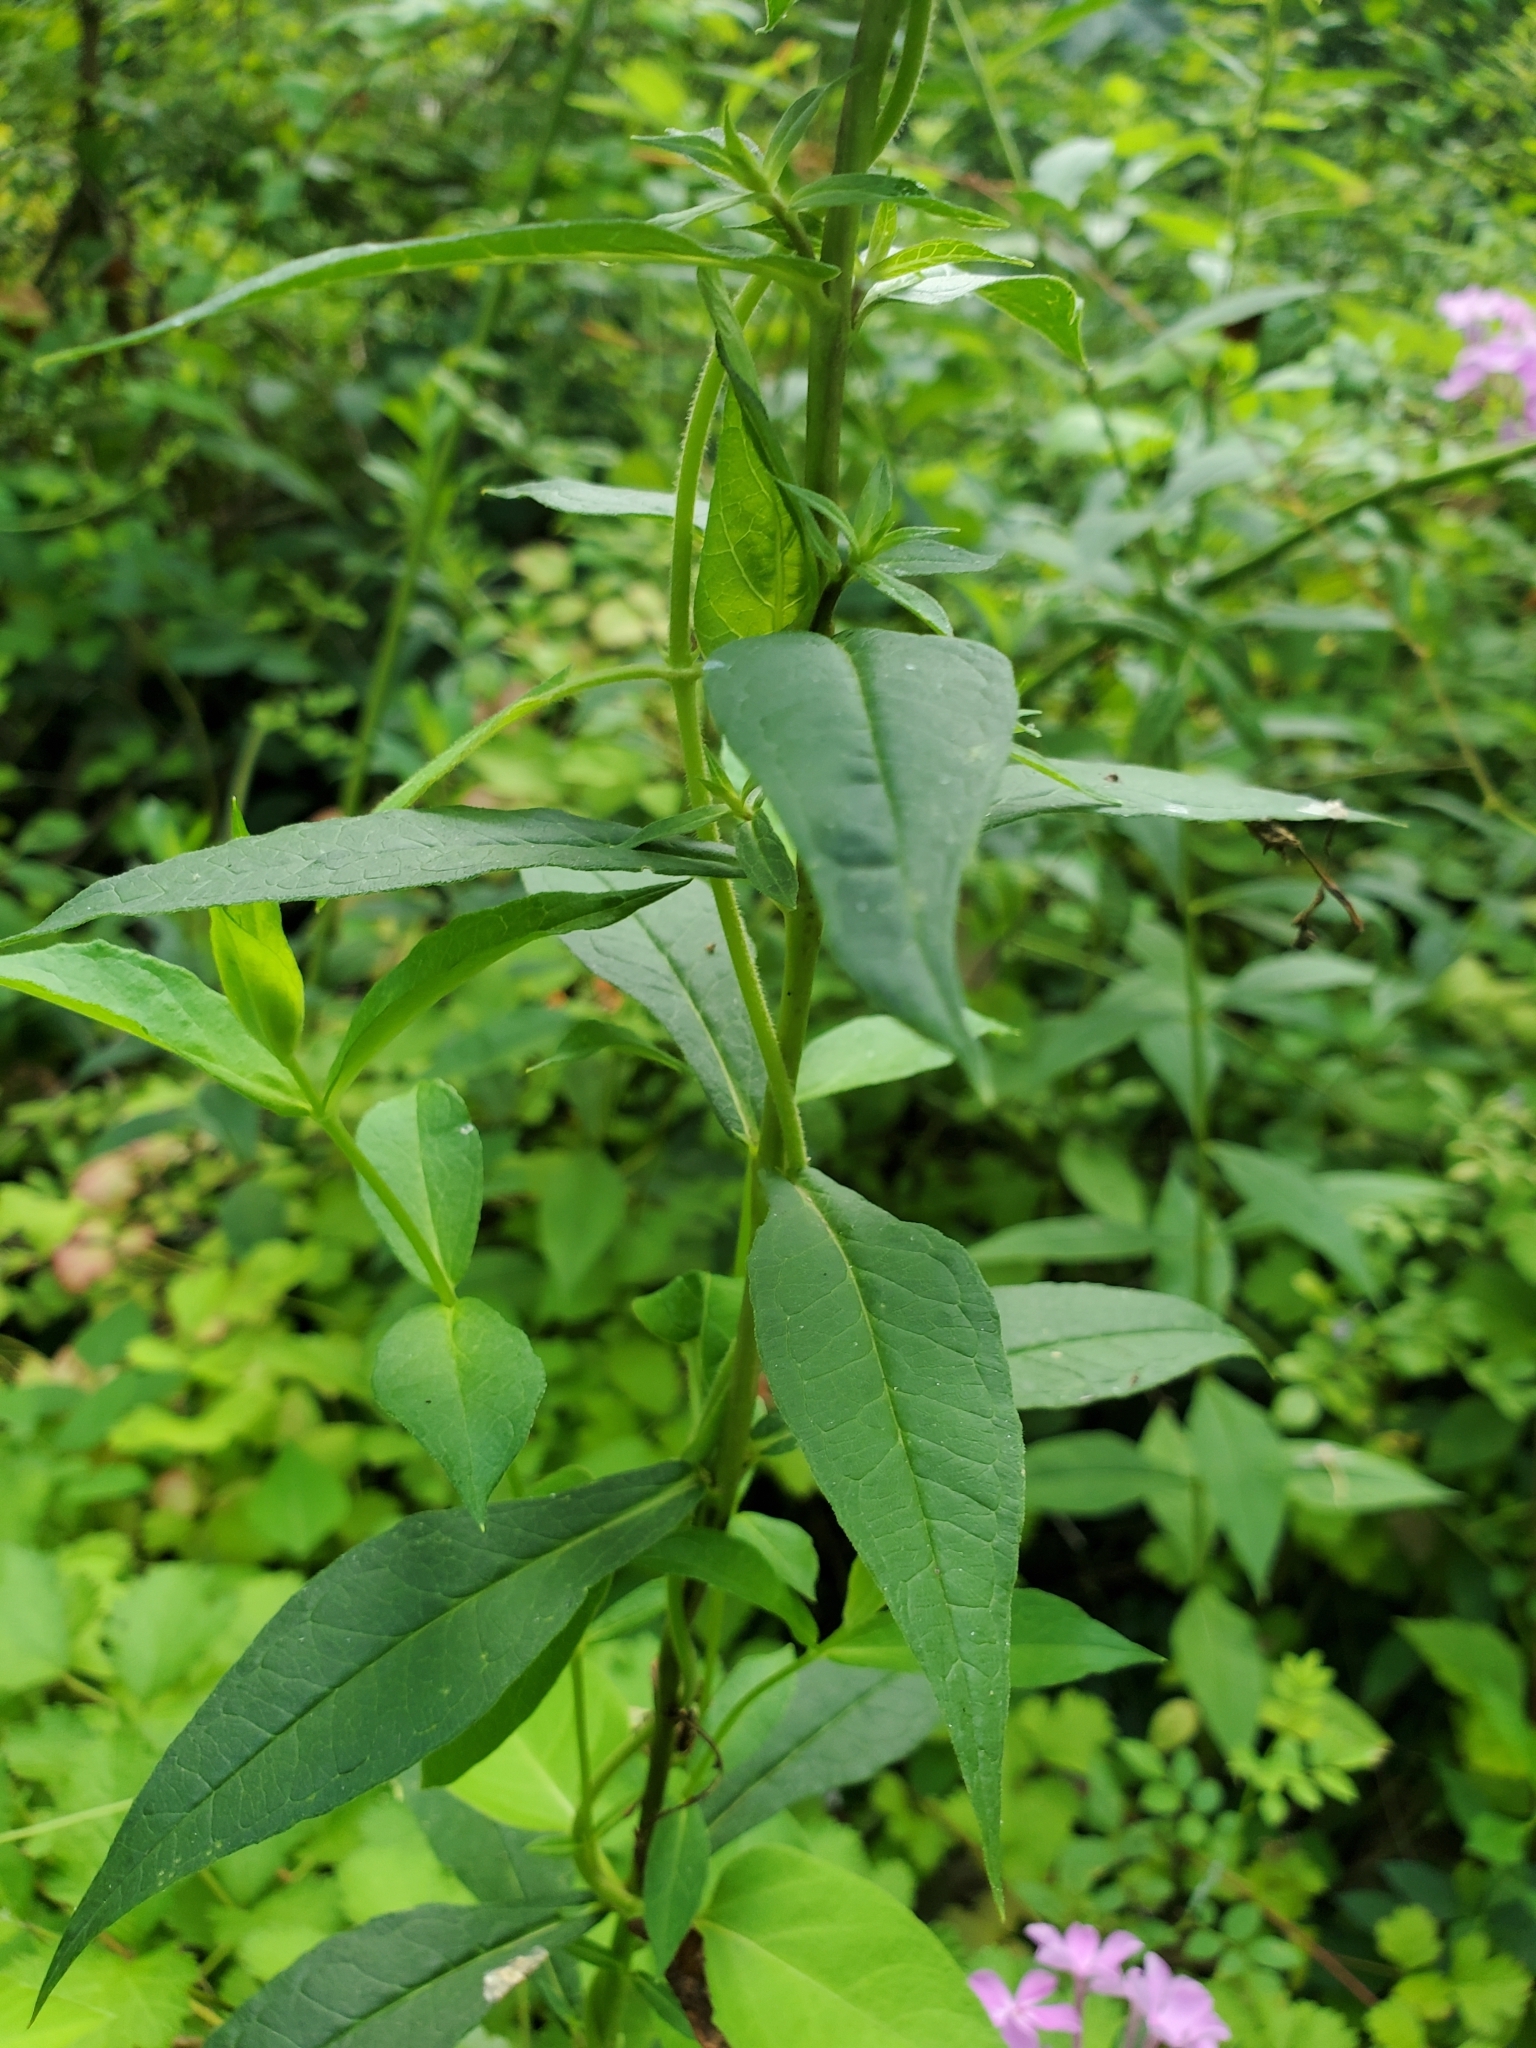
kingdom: Plantae
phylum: Tracheophyta
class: Magnoliopsida
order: Ericales
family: Polemoniaceae
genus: Phlox
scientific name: Phlox paniculata
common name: Fall phlox
